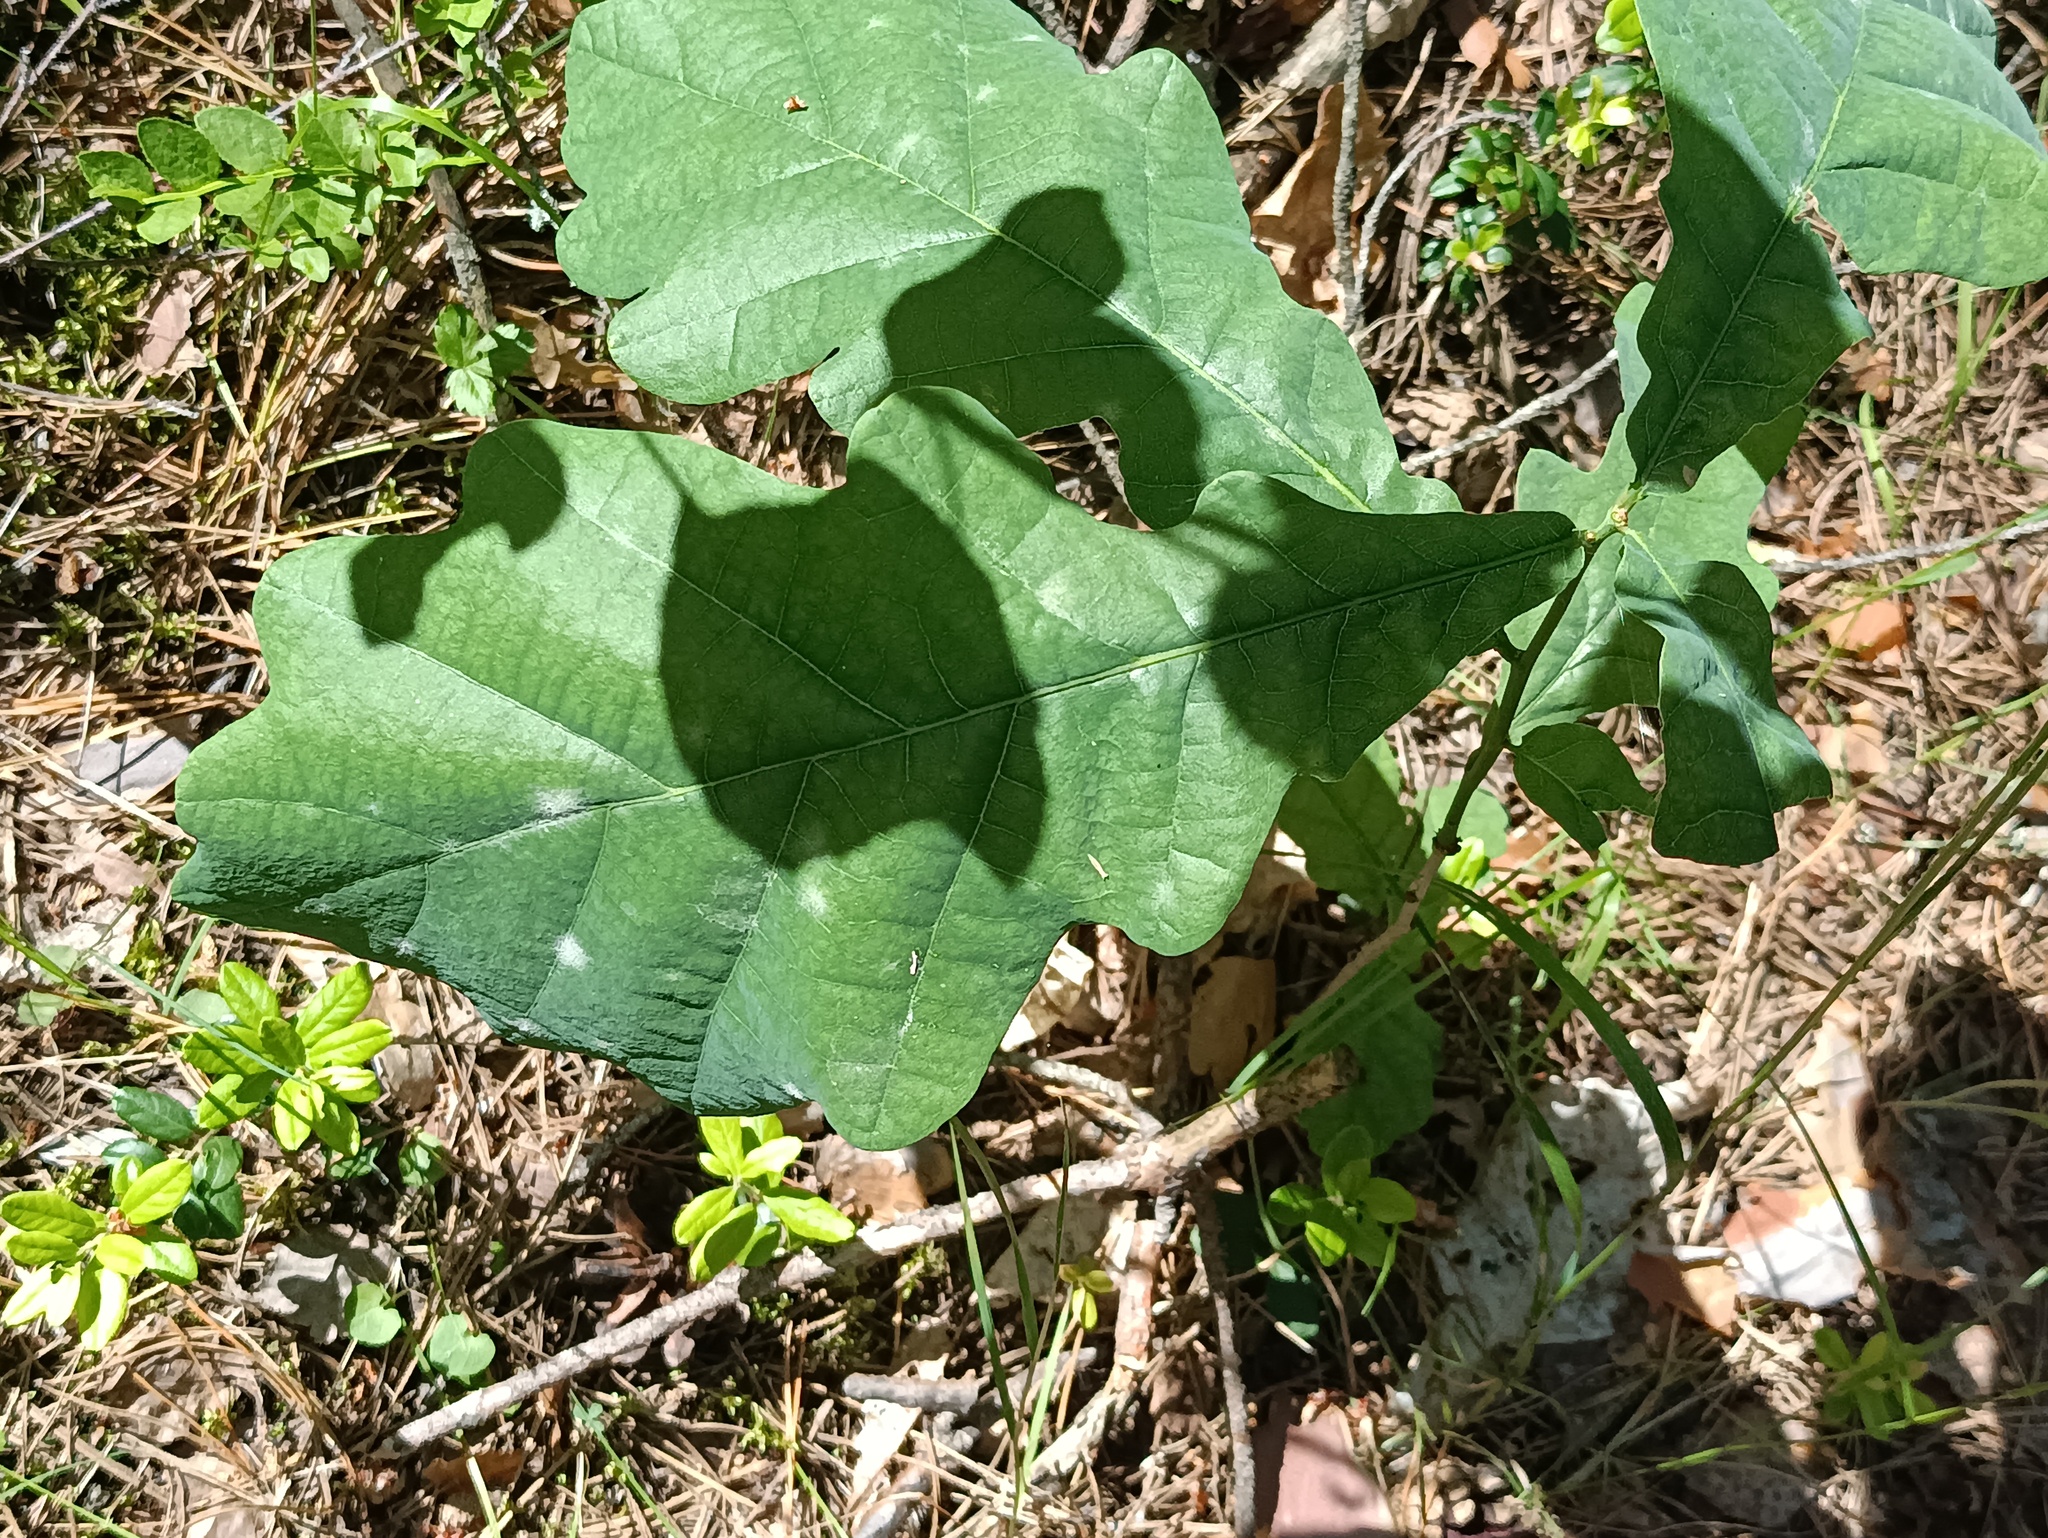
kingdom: Plantae
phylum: Tracheophyta
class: Magnoliopsida
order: Fagales
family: Fagaceae
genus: Quercus
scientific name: Quercus robur
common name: Pedunculate oak
